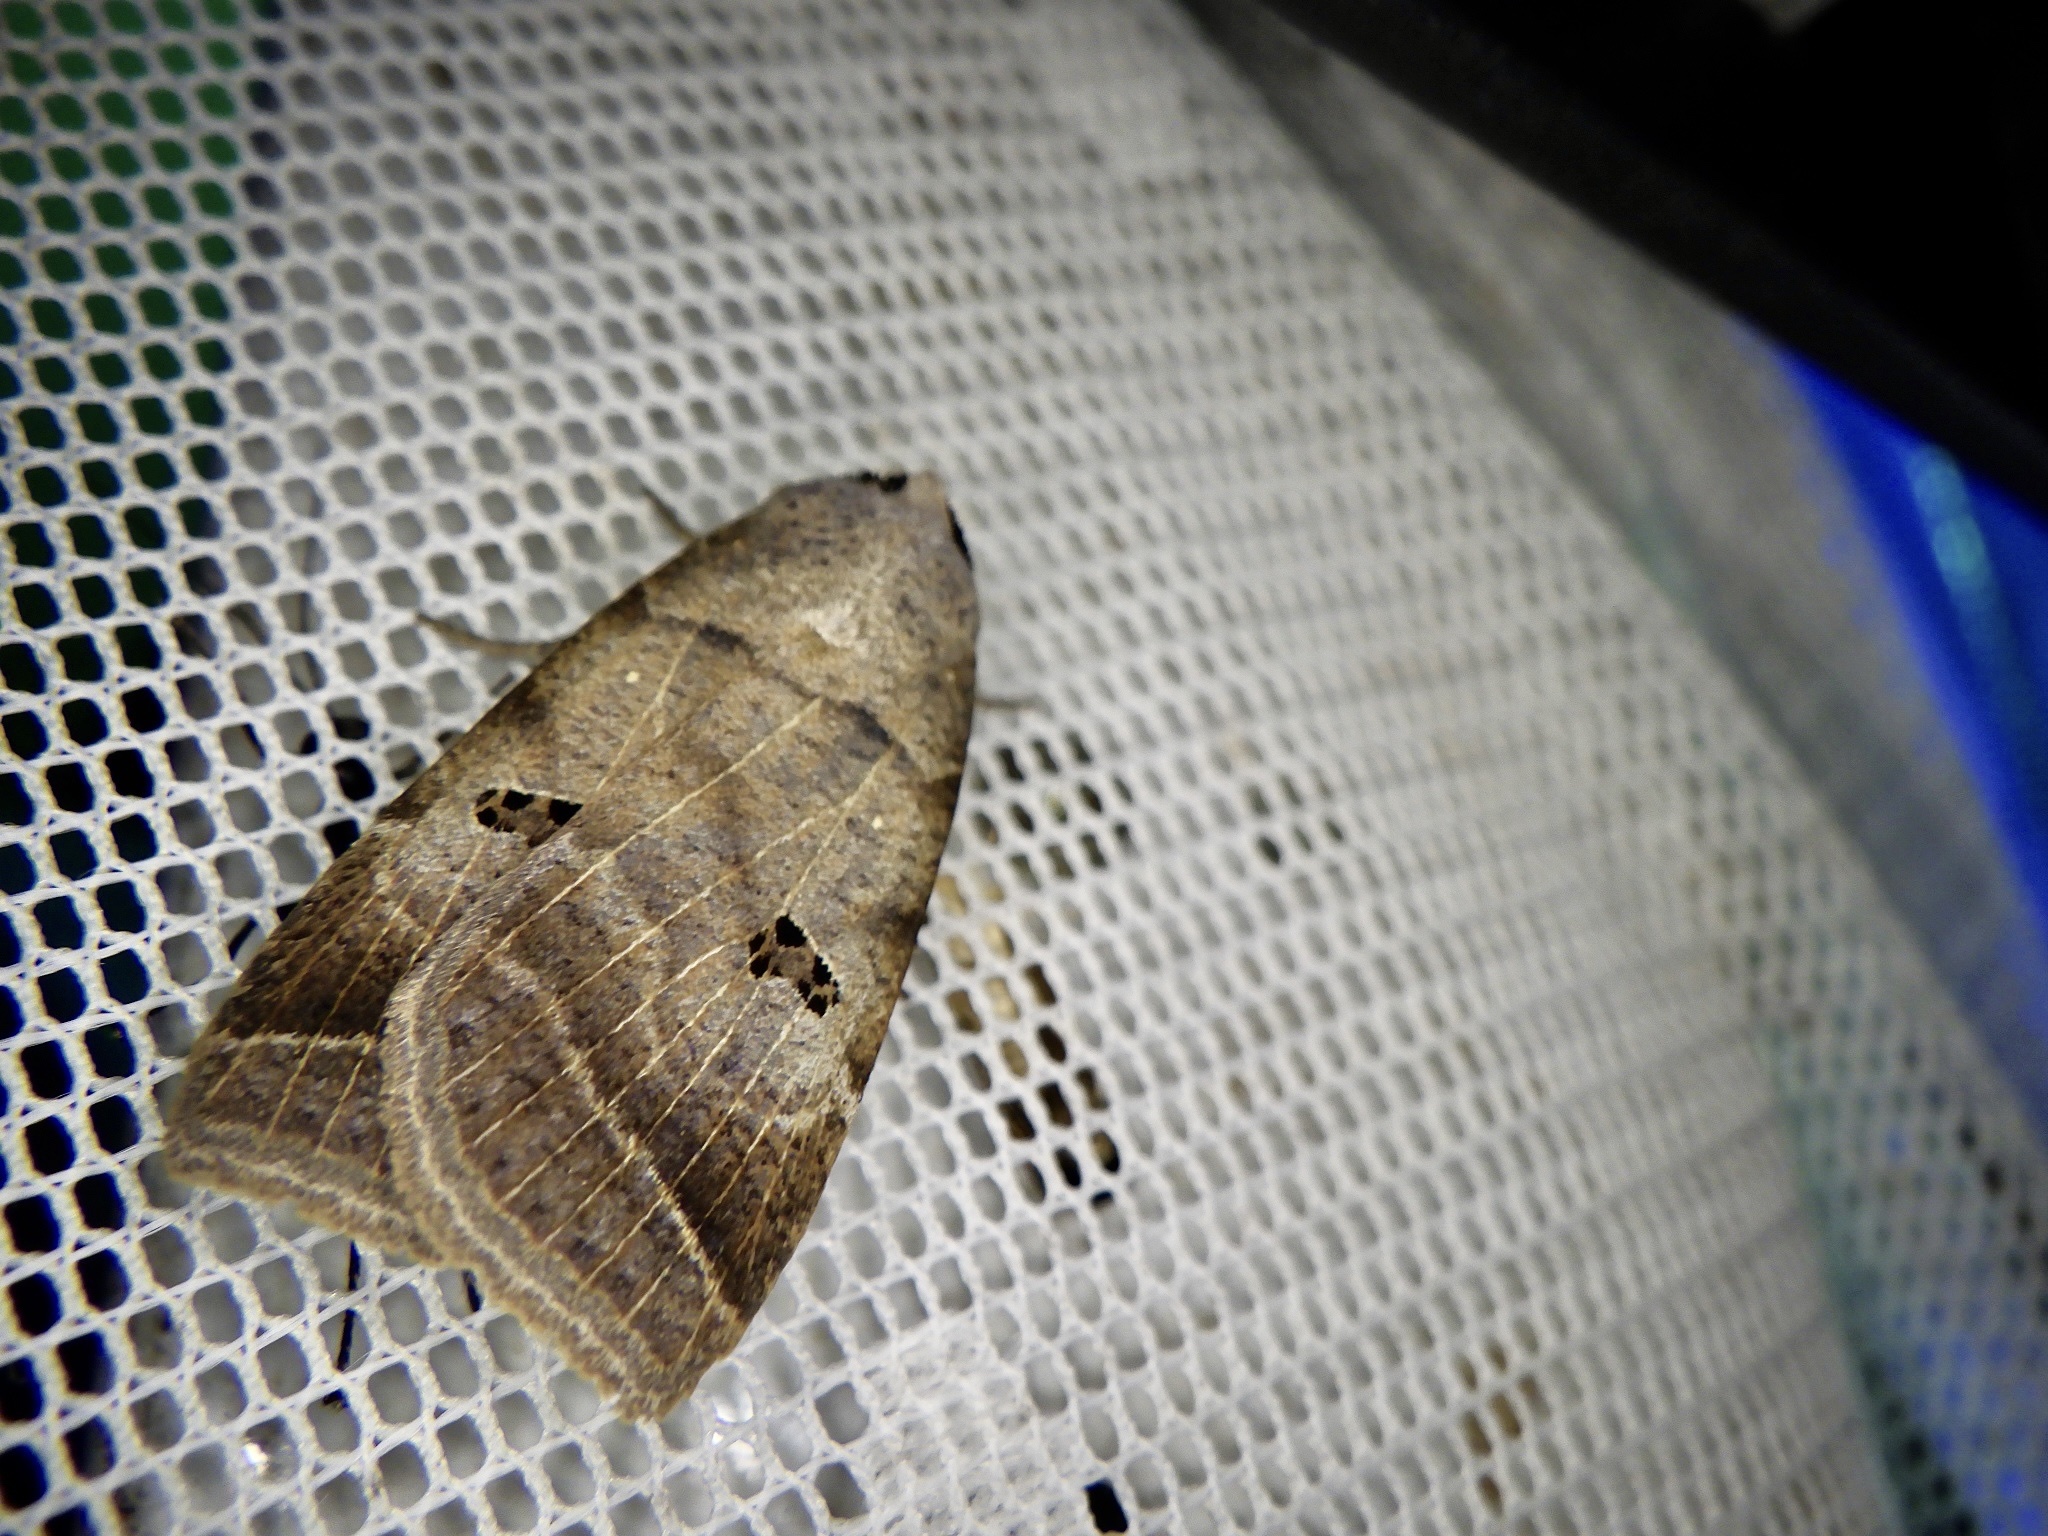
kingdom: Animalia
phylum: Arthropoda
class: Insecta
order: Lepidoptera
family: Erebidae
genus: Lygephila
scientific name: Lygephila recta
